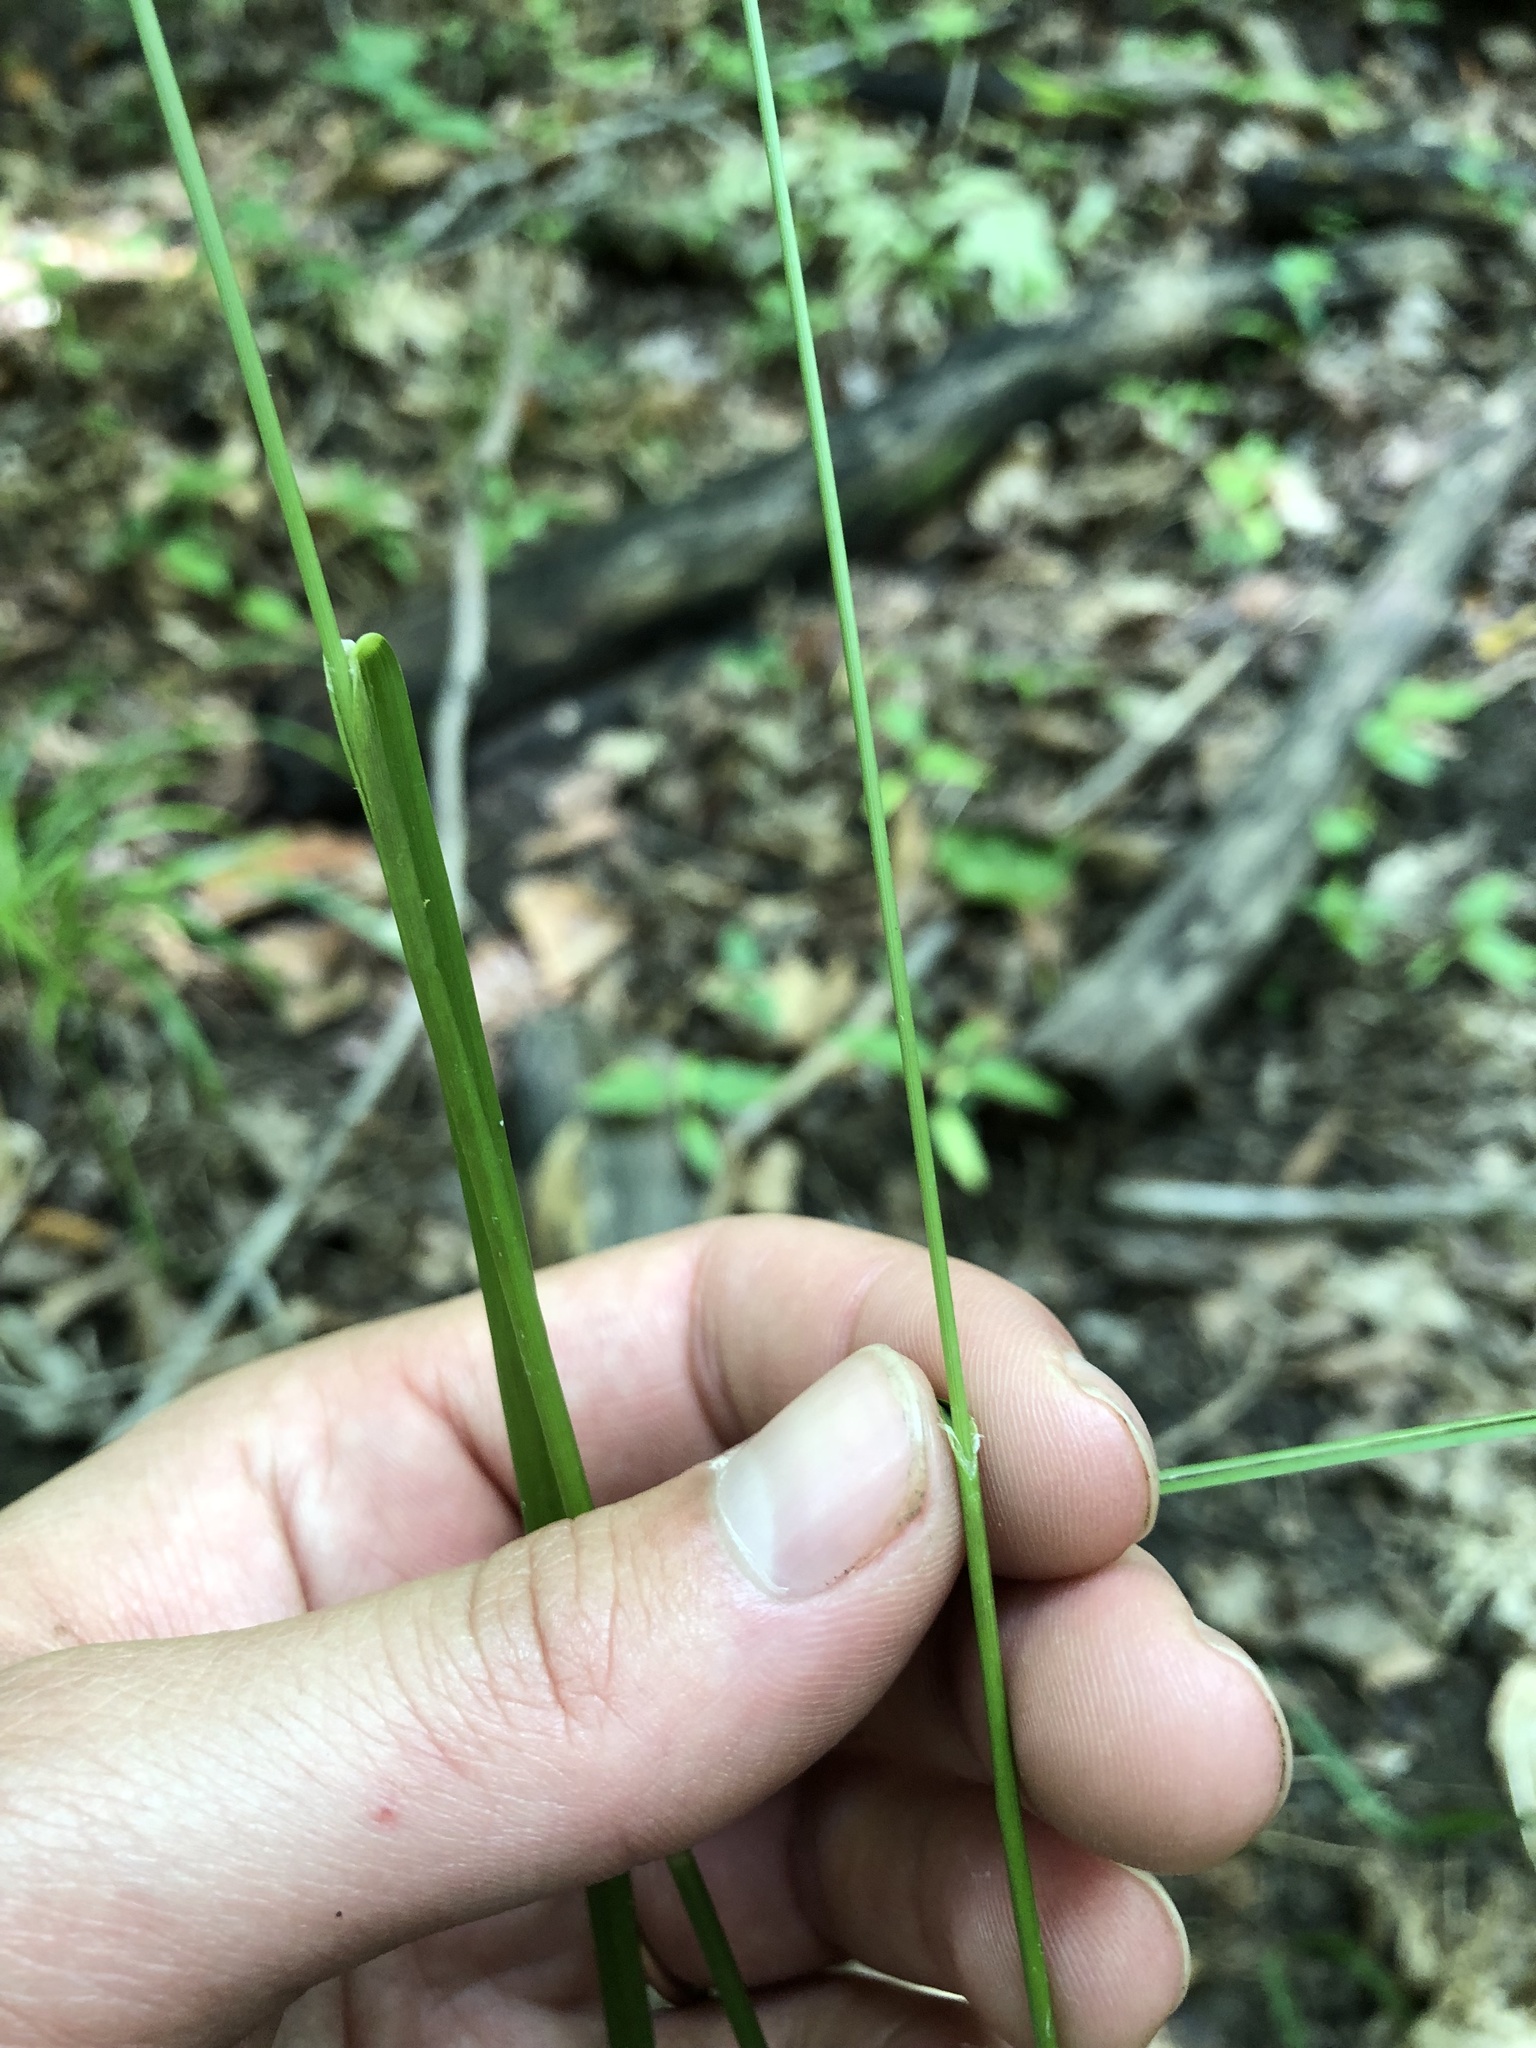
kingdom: Plantae
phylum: Tracheophyta
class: Liliopsida
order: Poales
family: Poaceae
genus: Glyceria
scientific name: Glyceria striata
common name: Fowl manna grass
